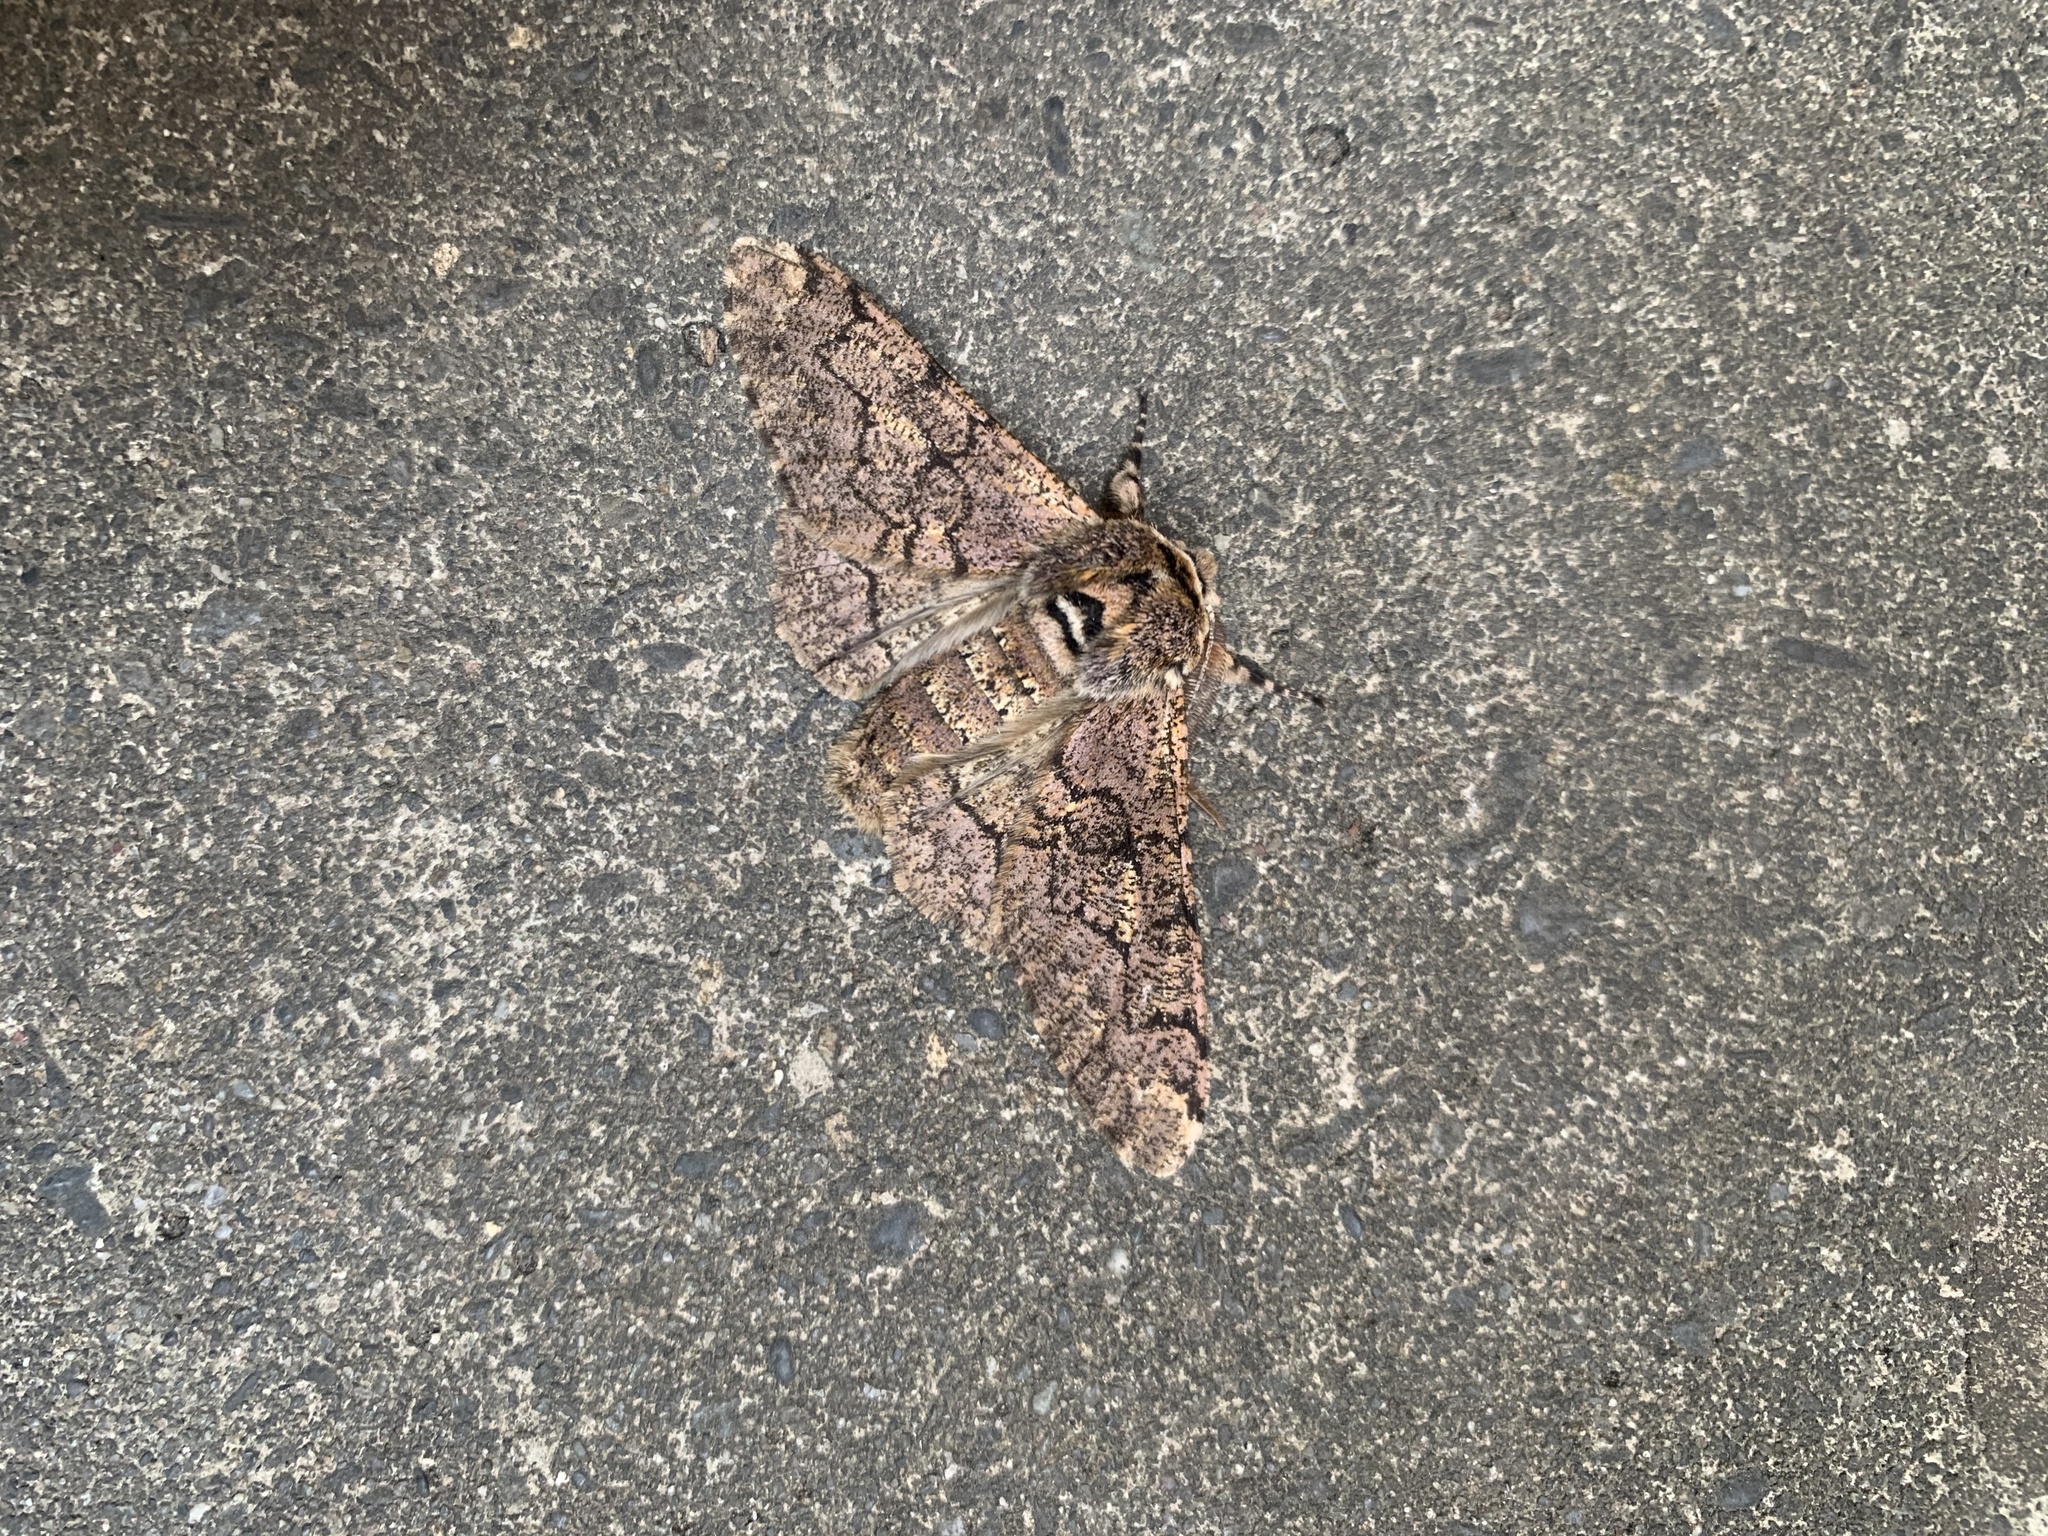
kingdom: Animalia
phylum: Arthropoda
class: Insecta
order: Lepidoptera
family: Geometridae
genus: Biston
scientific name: Biston robustum
